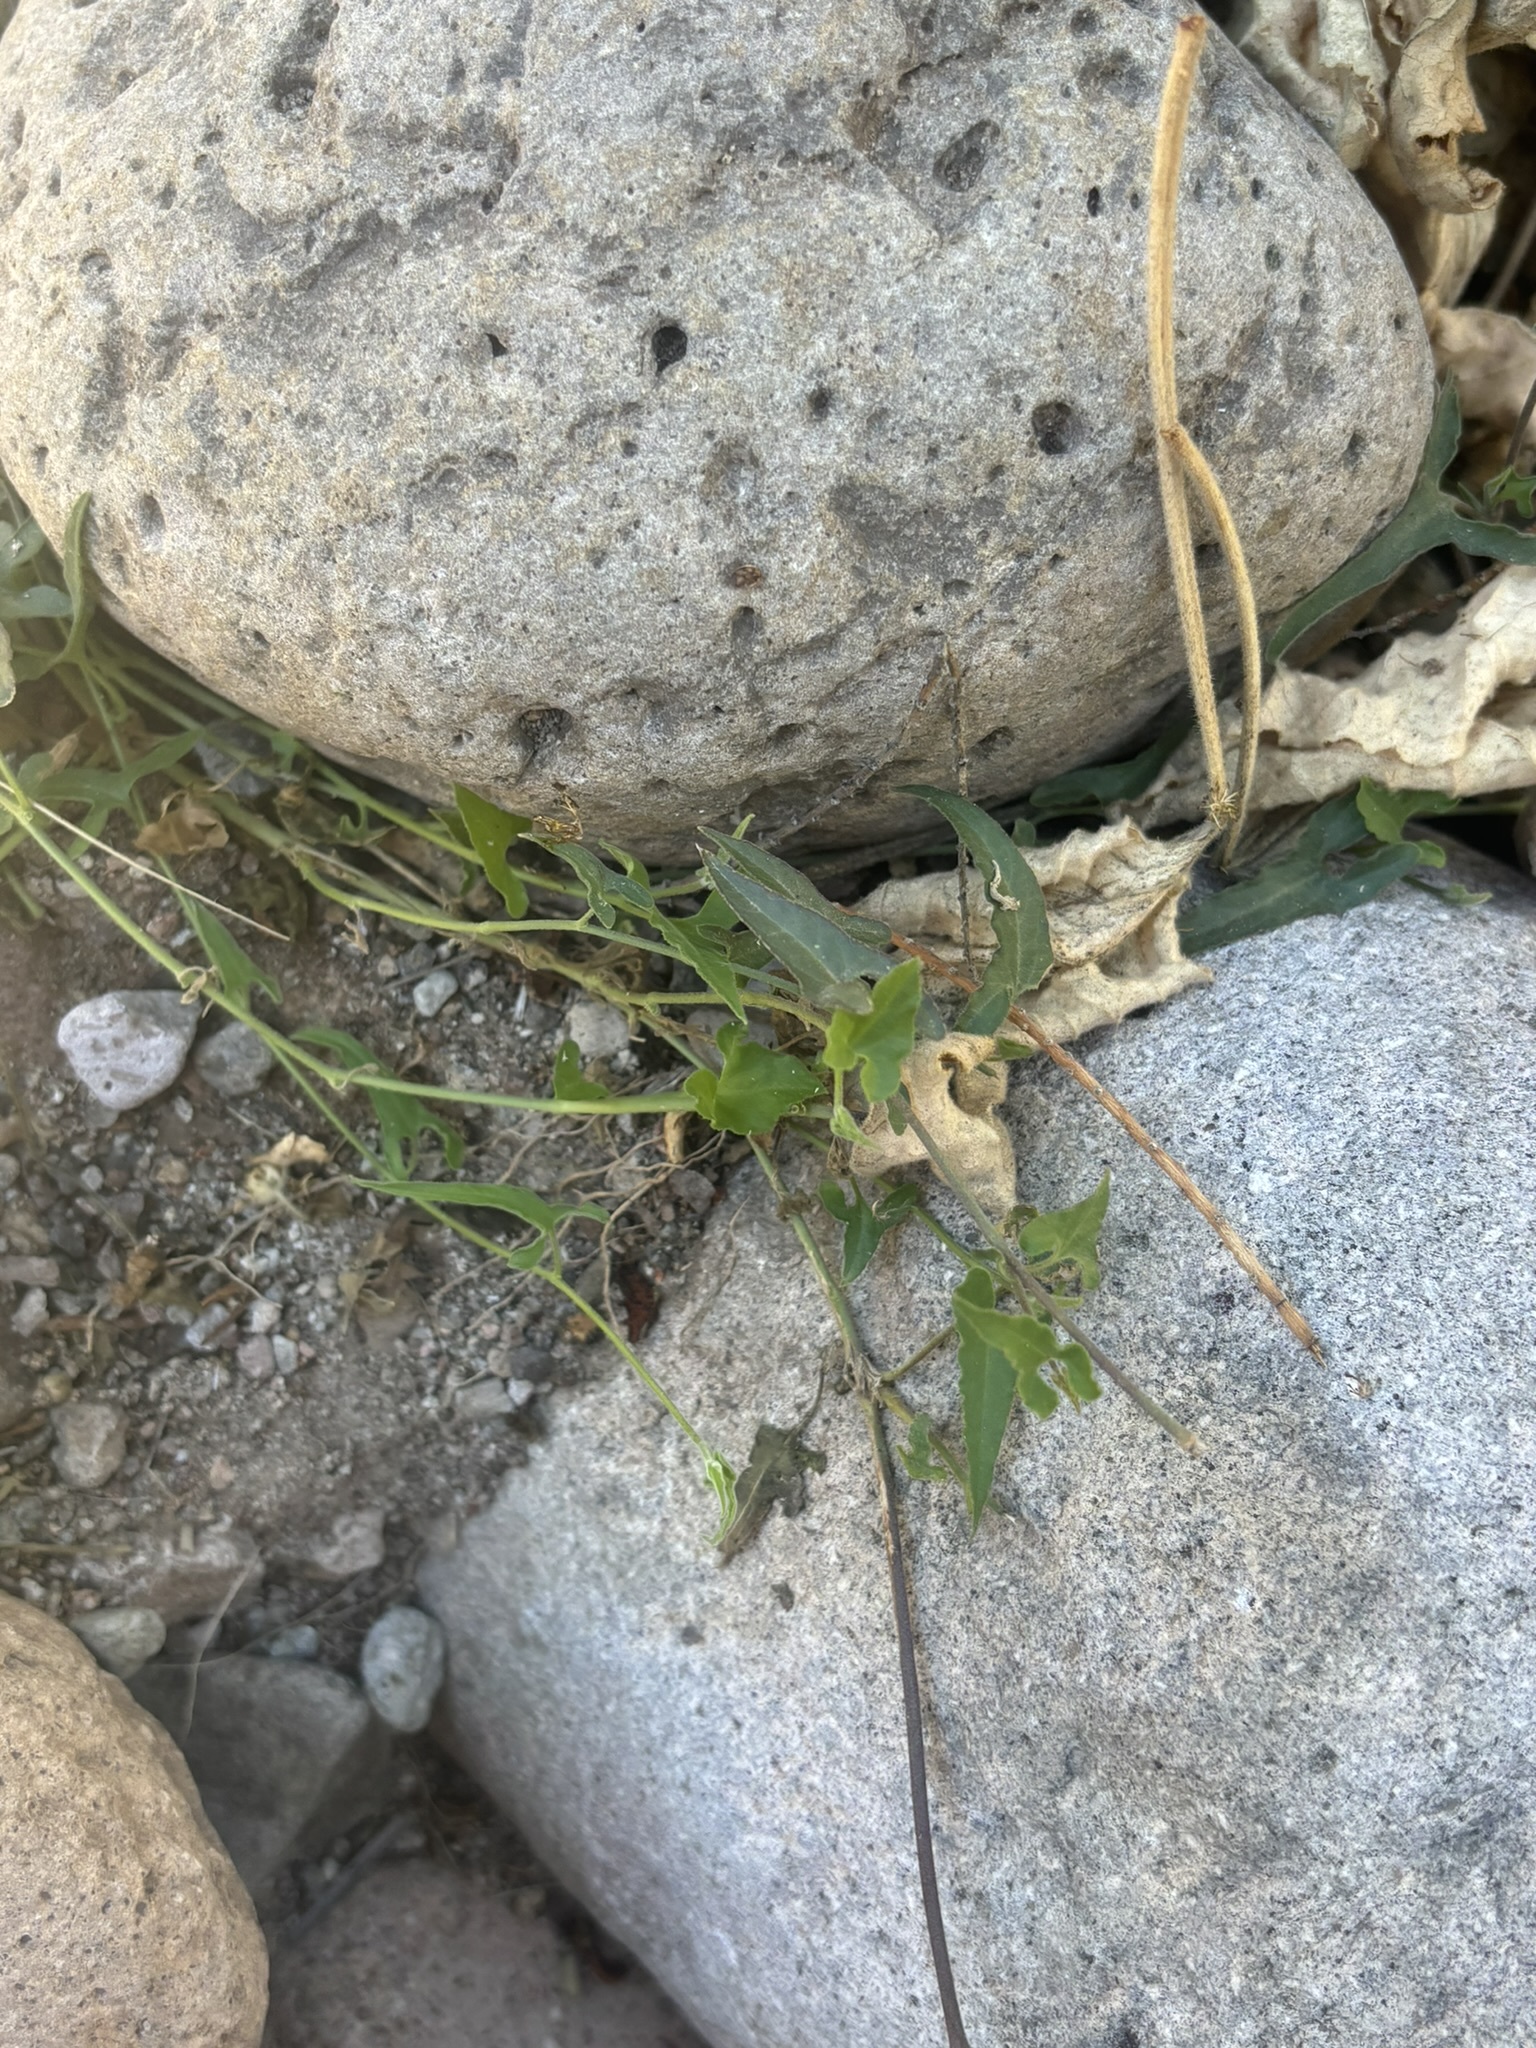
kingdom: Plantae
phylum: Tracheophyta
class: Magnoliopsida
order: Piperales
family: Aristolochiaceae
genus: Aristolochia
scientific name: Aristolochia watsonii
